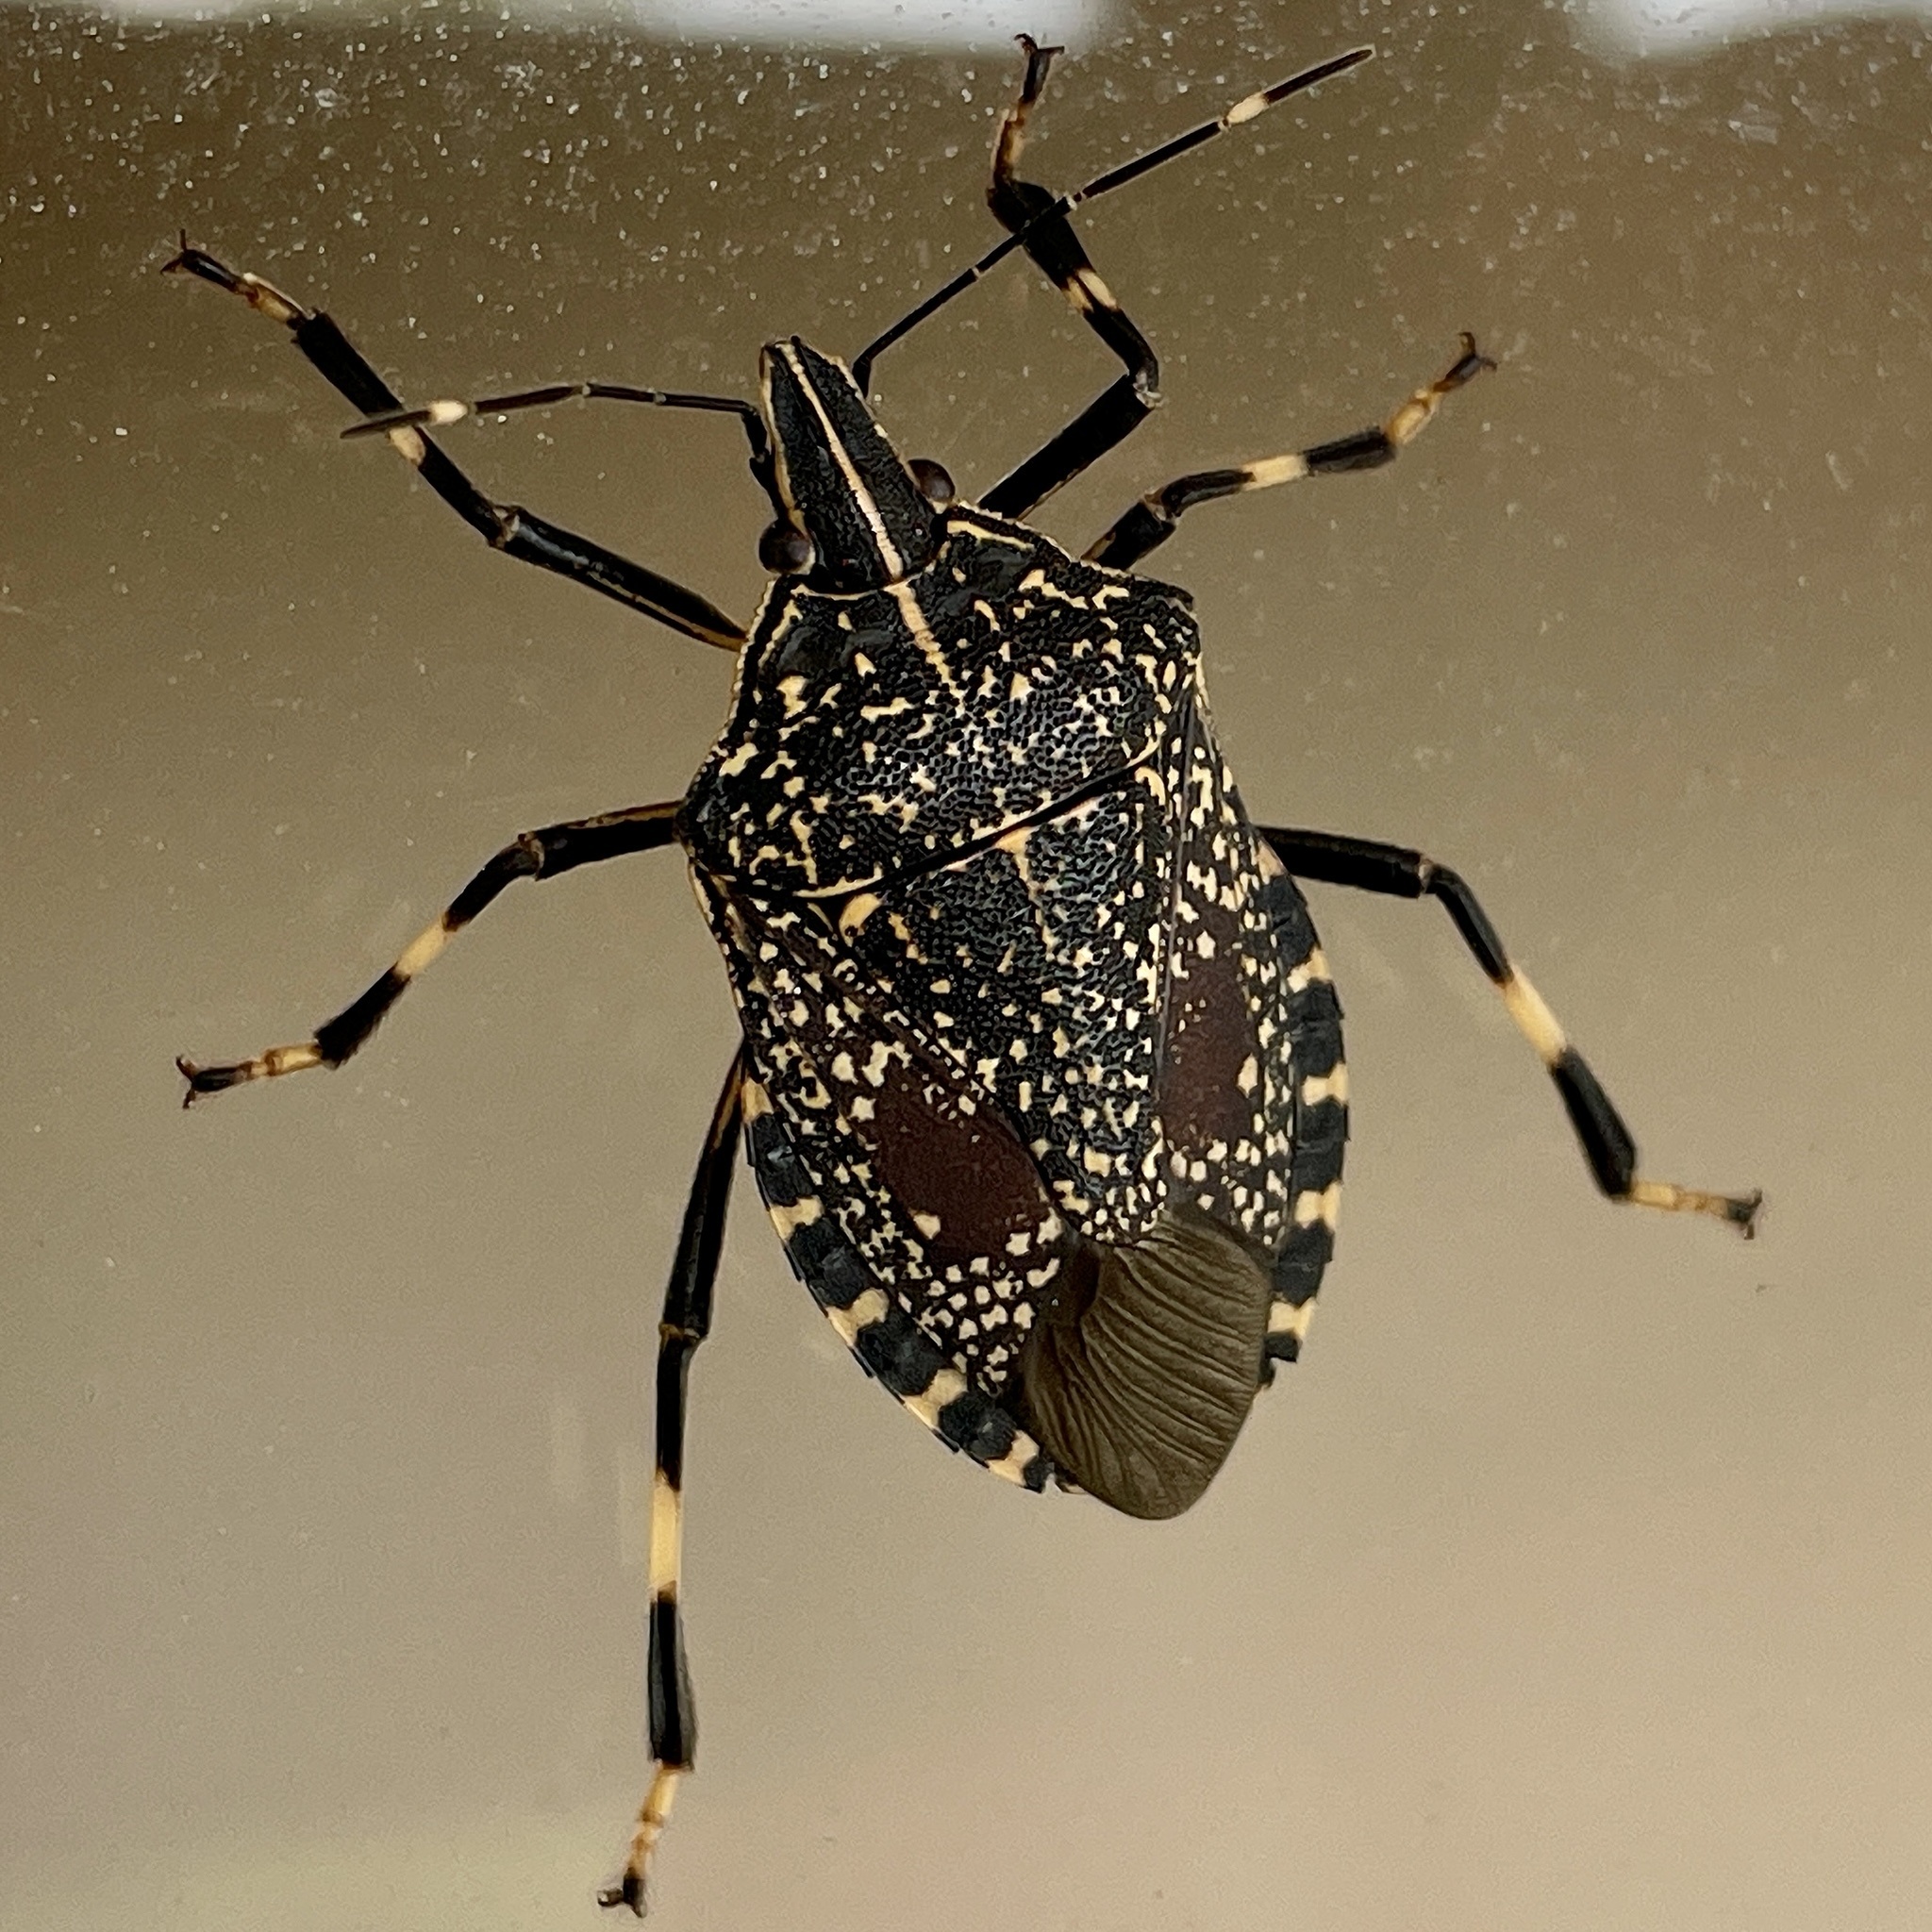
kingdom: Animalia
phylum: Arthropoda
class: Insecta
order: Hemiptera
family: Pentatomidae
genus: Erthesina
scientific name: Erthesina fullo
